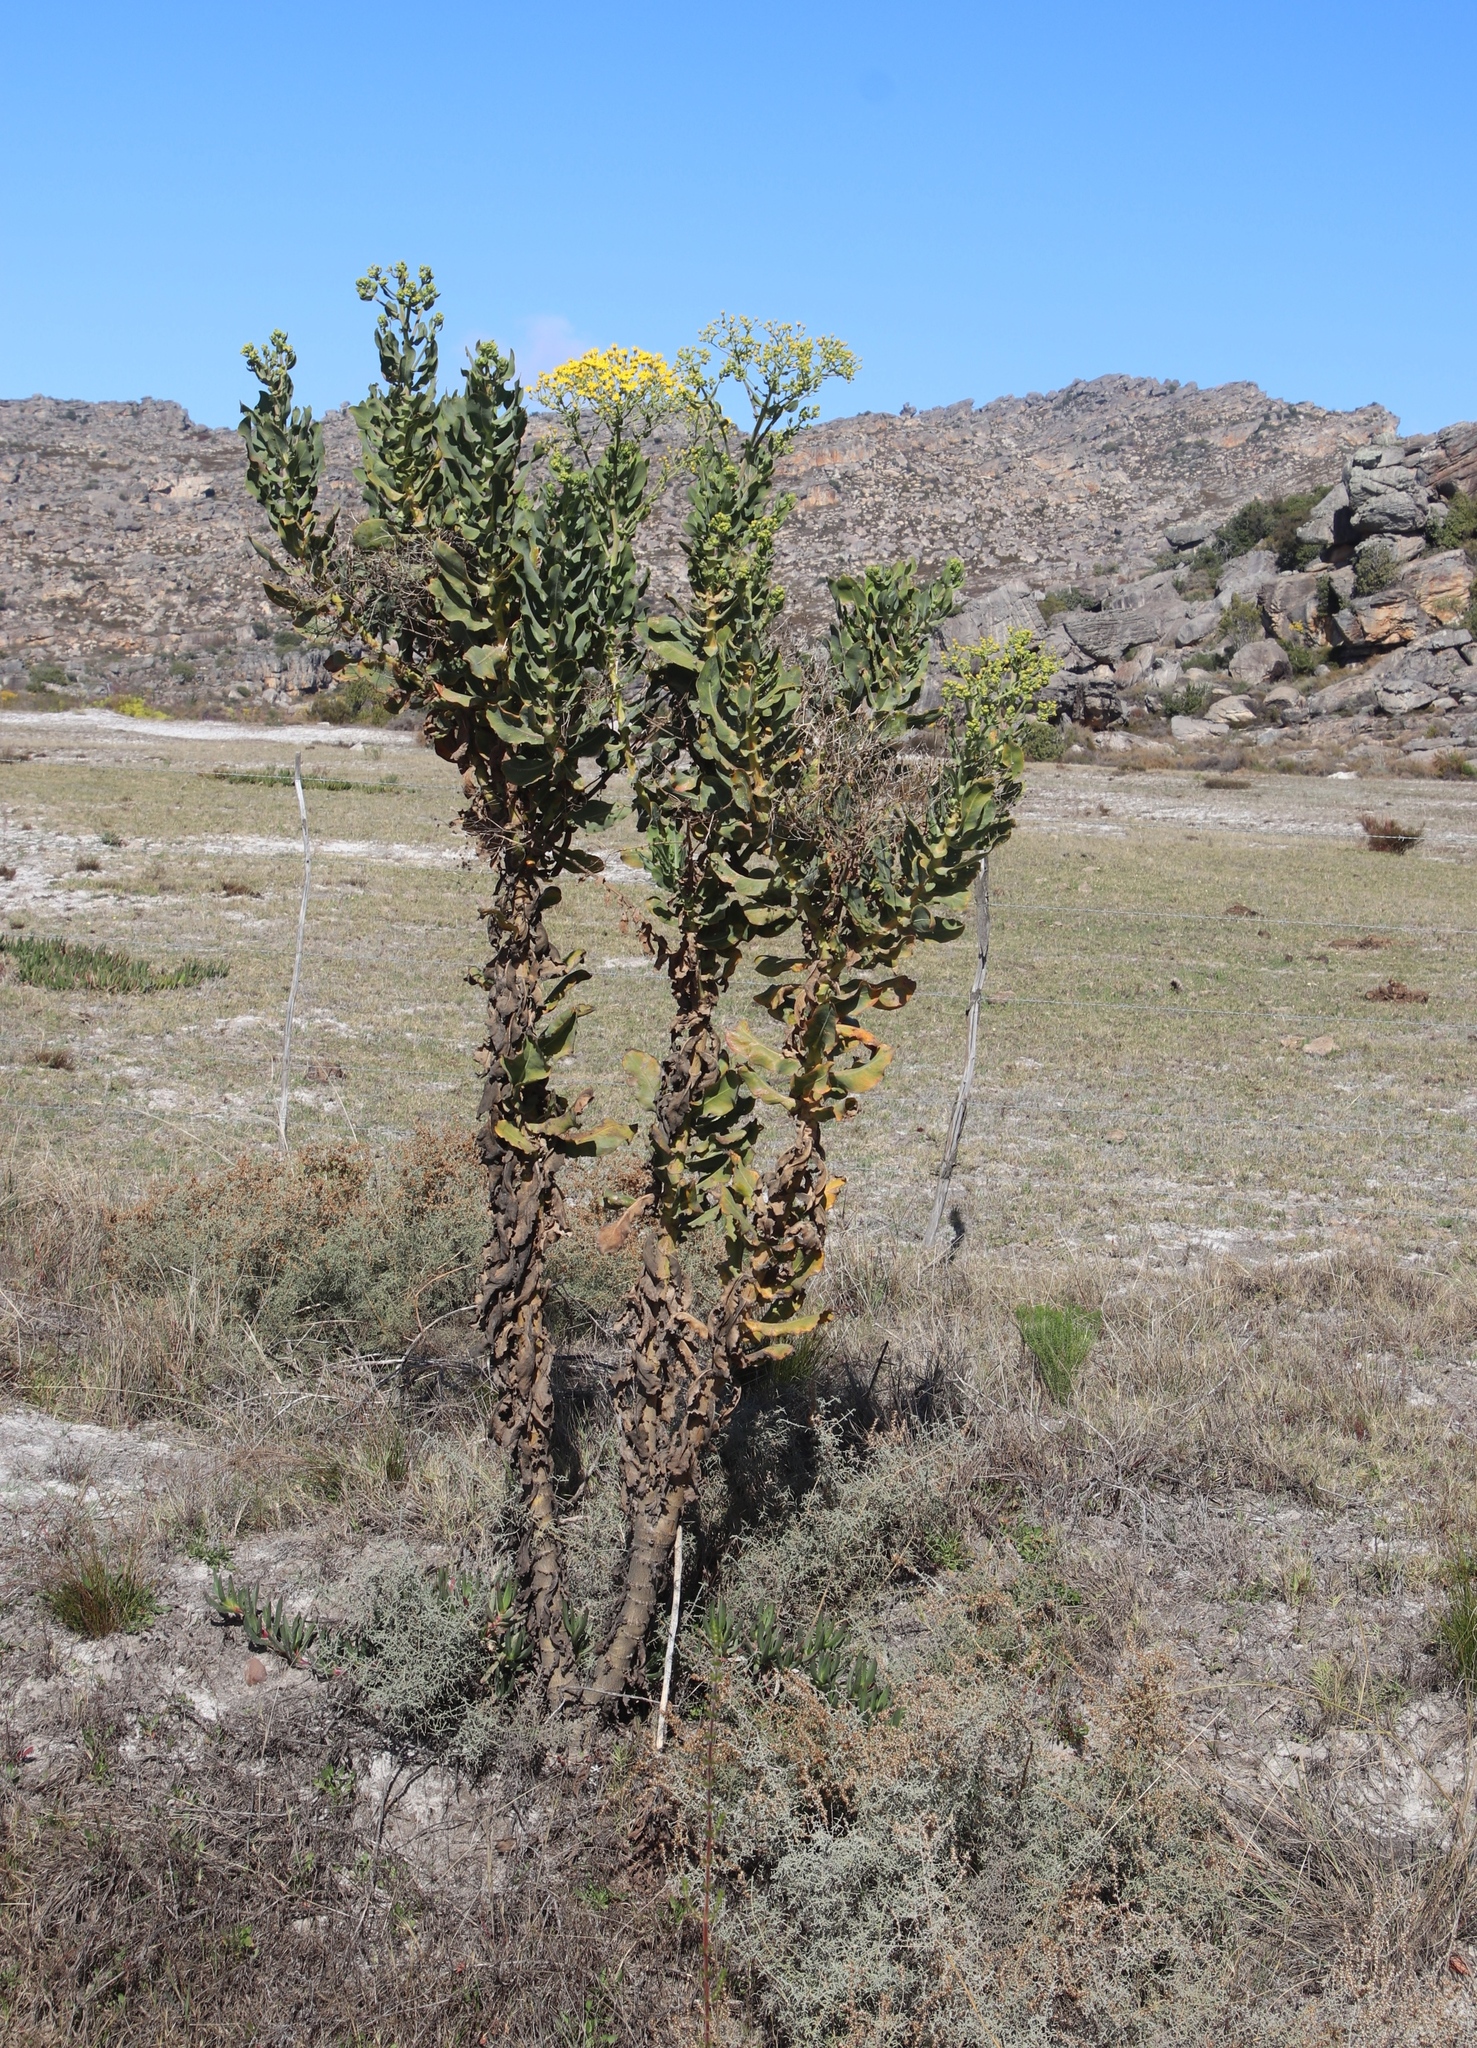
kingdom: Plantae
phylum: Tracheophyta
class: Magnoliopsida
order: Asterales
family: Asteraceae
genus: Othonna
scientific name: Othonna parviflora
